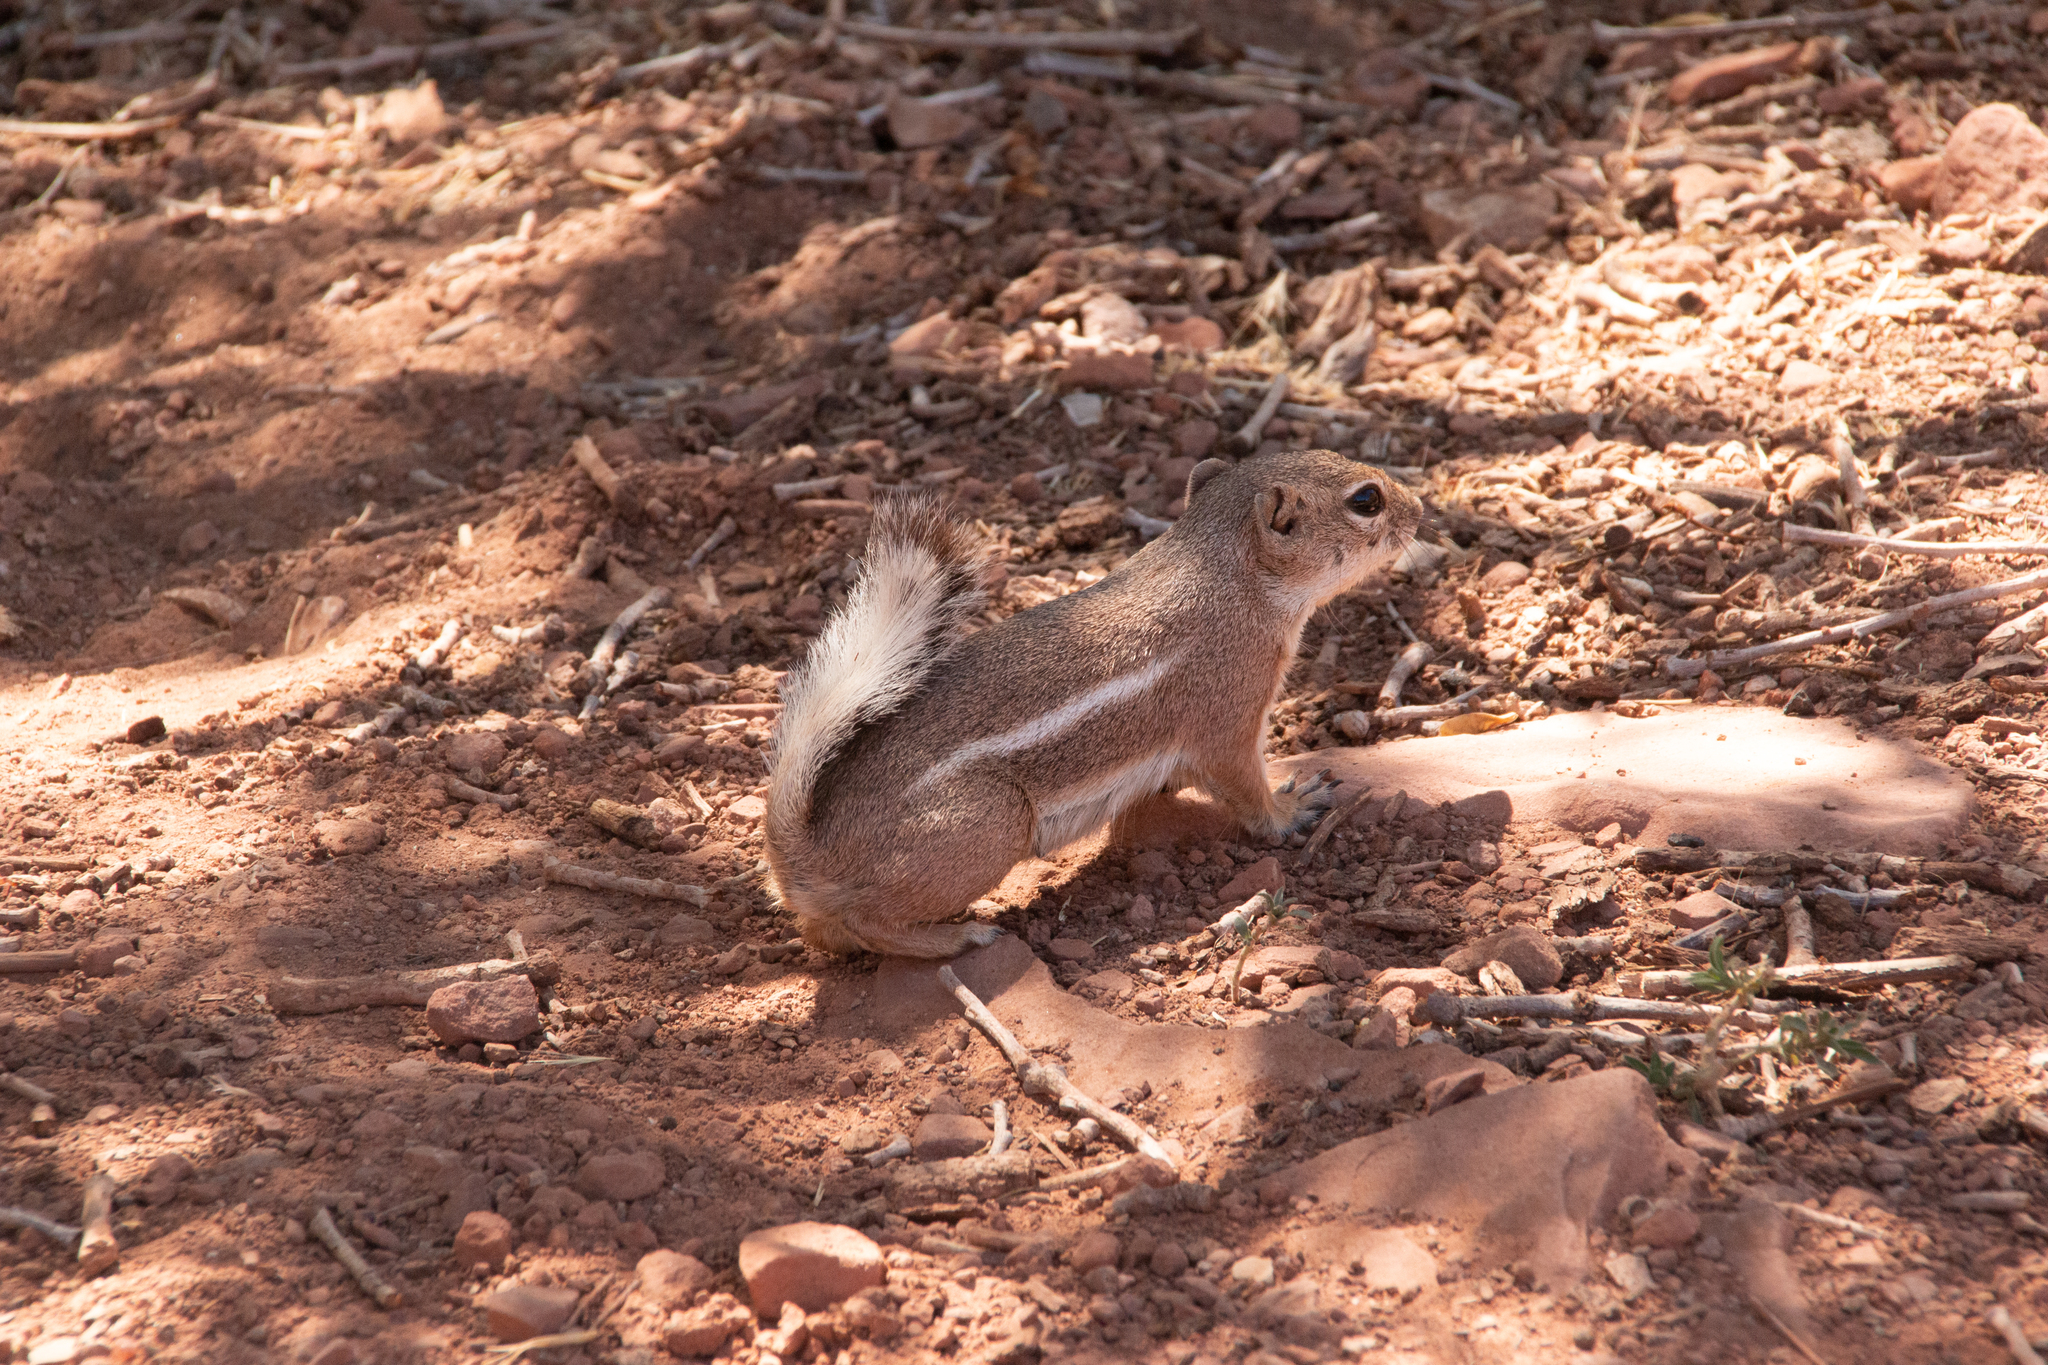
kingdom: Animalia
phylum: Chordata
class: Aves
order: Accipitriformes
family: Cathartidae
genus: Cathartes
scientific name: Cathartes aura
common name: Turkey vulture
